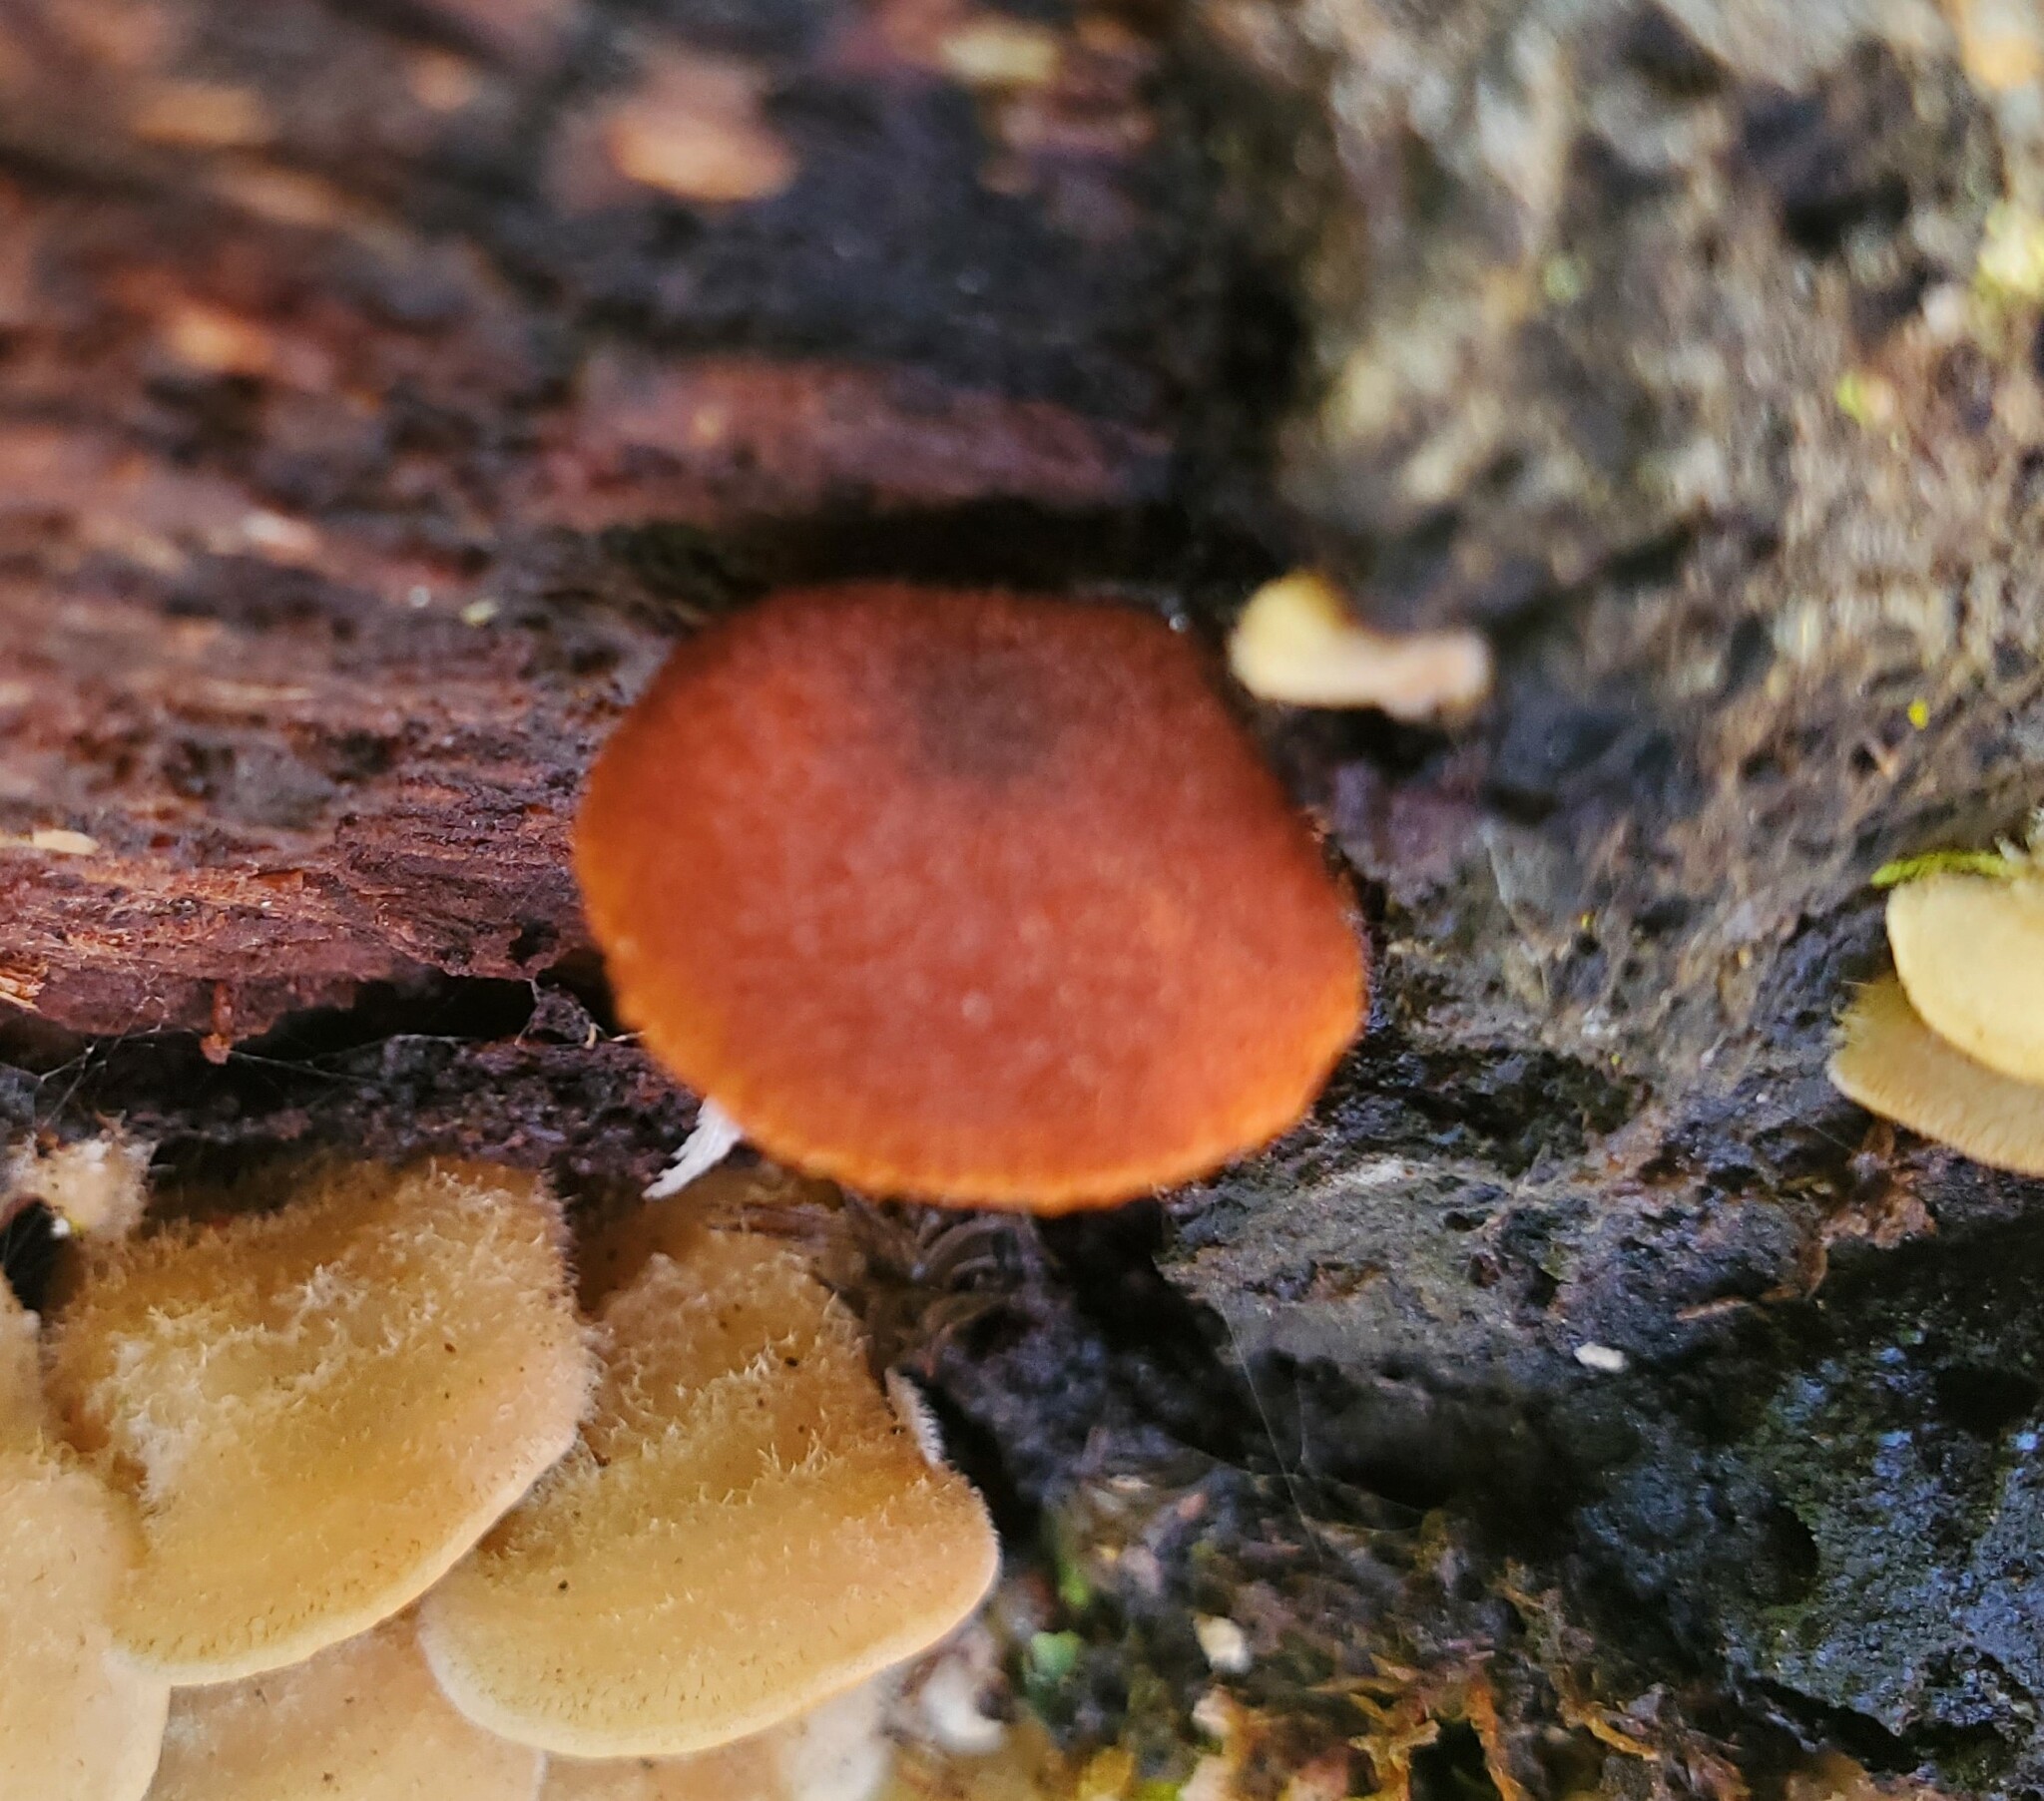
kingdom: Fungi
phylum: Basidiomycota
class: Agaricomycetes
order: Agaricales
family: Tubariaceae
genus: Phaeomarasmius
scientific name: Phaeomarasmius erinaceus
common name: Hedgehog scalycap
